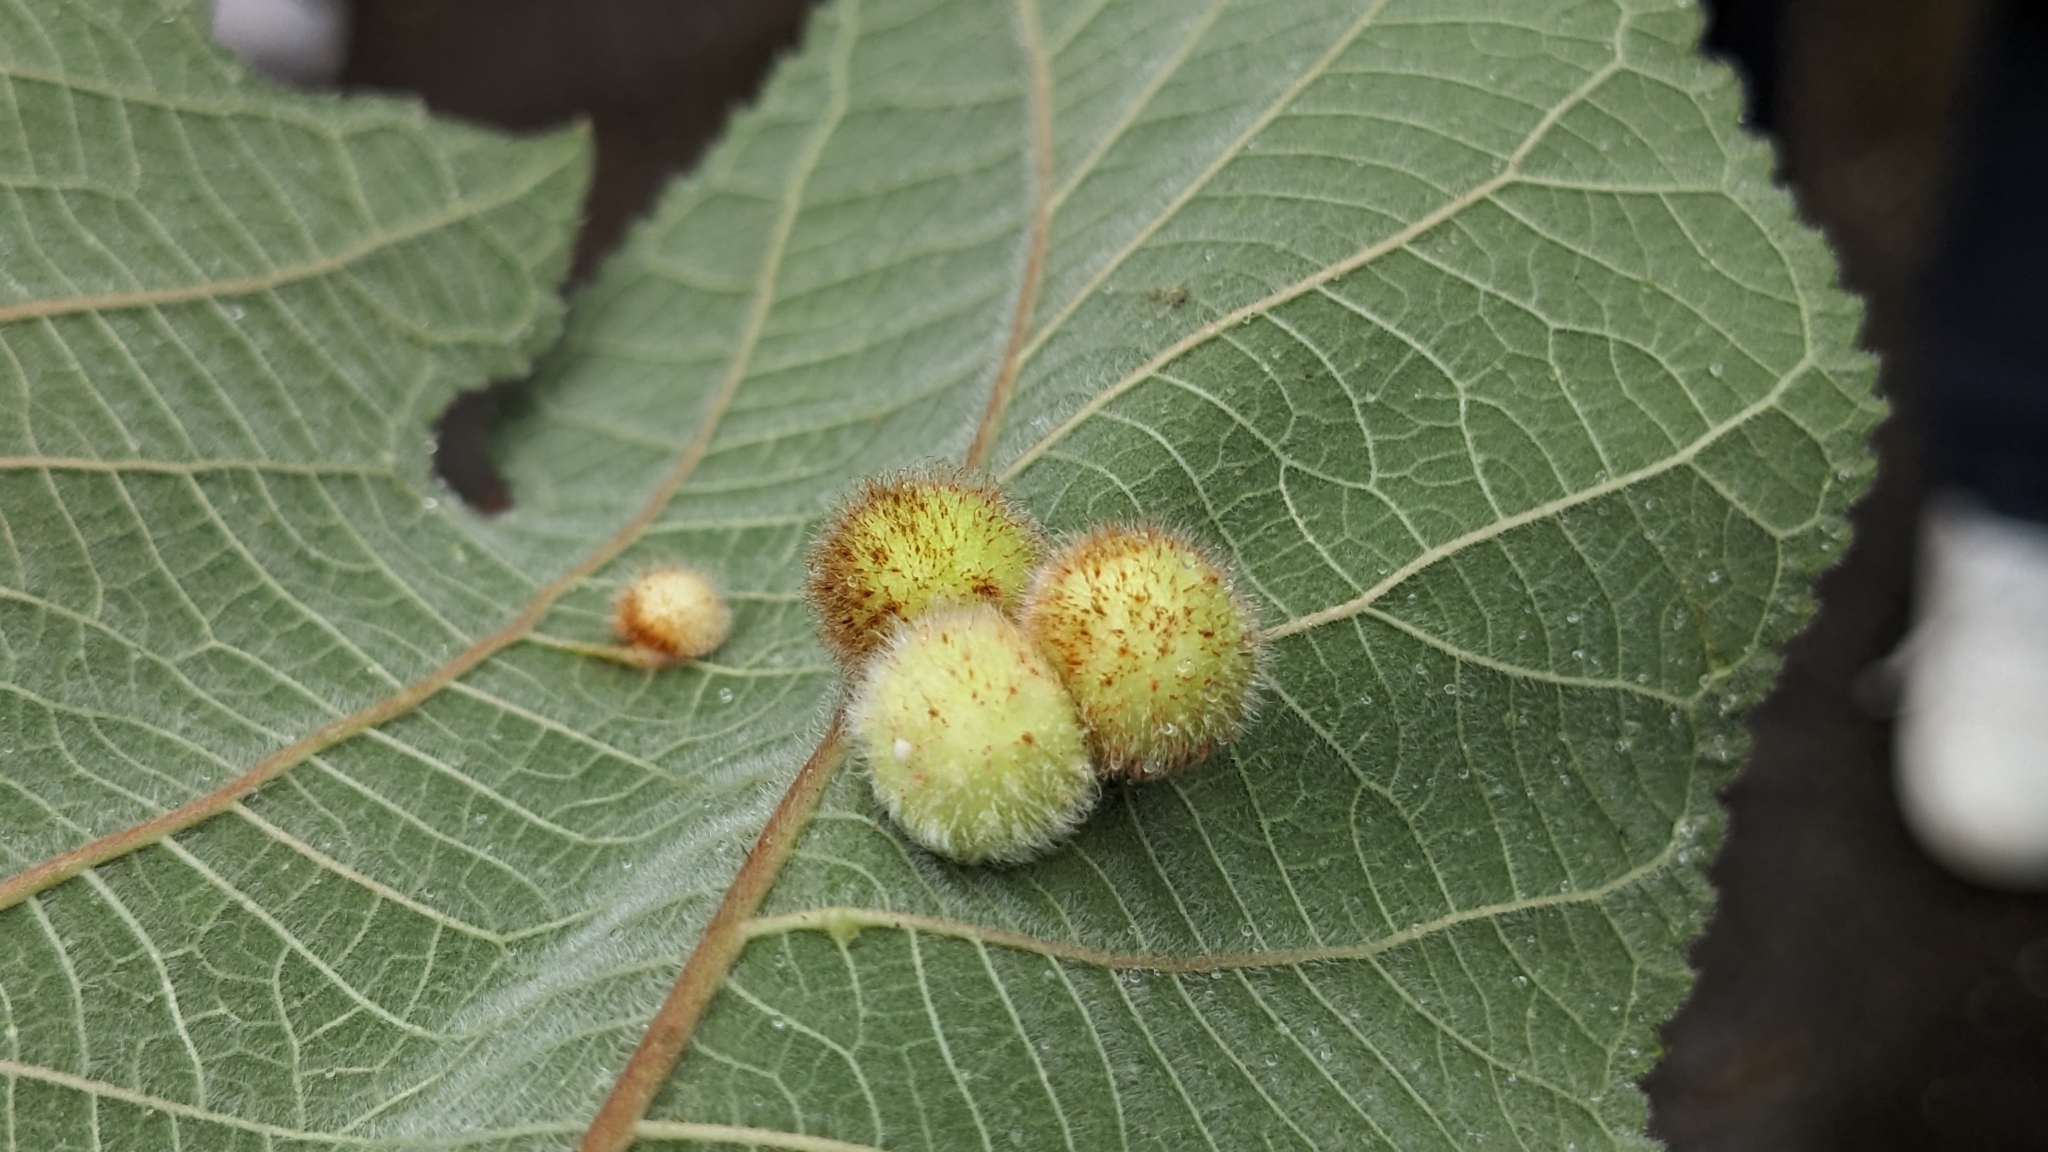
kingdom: Animalia
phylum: Arthropoda
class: Insecta
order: Diptera
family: Cecidomyiidae
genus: Schizomyia
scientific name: Schizomyia broussonetiae
